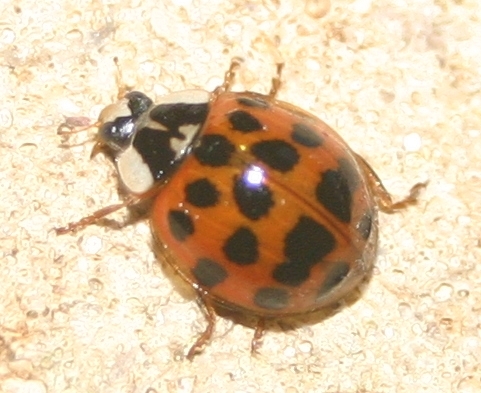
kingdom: Animalia
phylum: Arthropoda
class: Insecta
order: Coleoptera
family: Coccinellidae
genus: Harmonia
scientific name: Harmonia axyridis
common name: Harlequin ladybird
